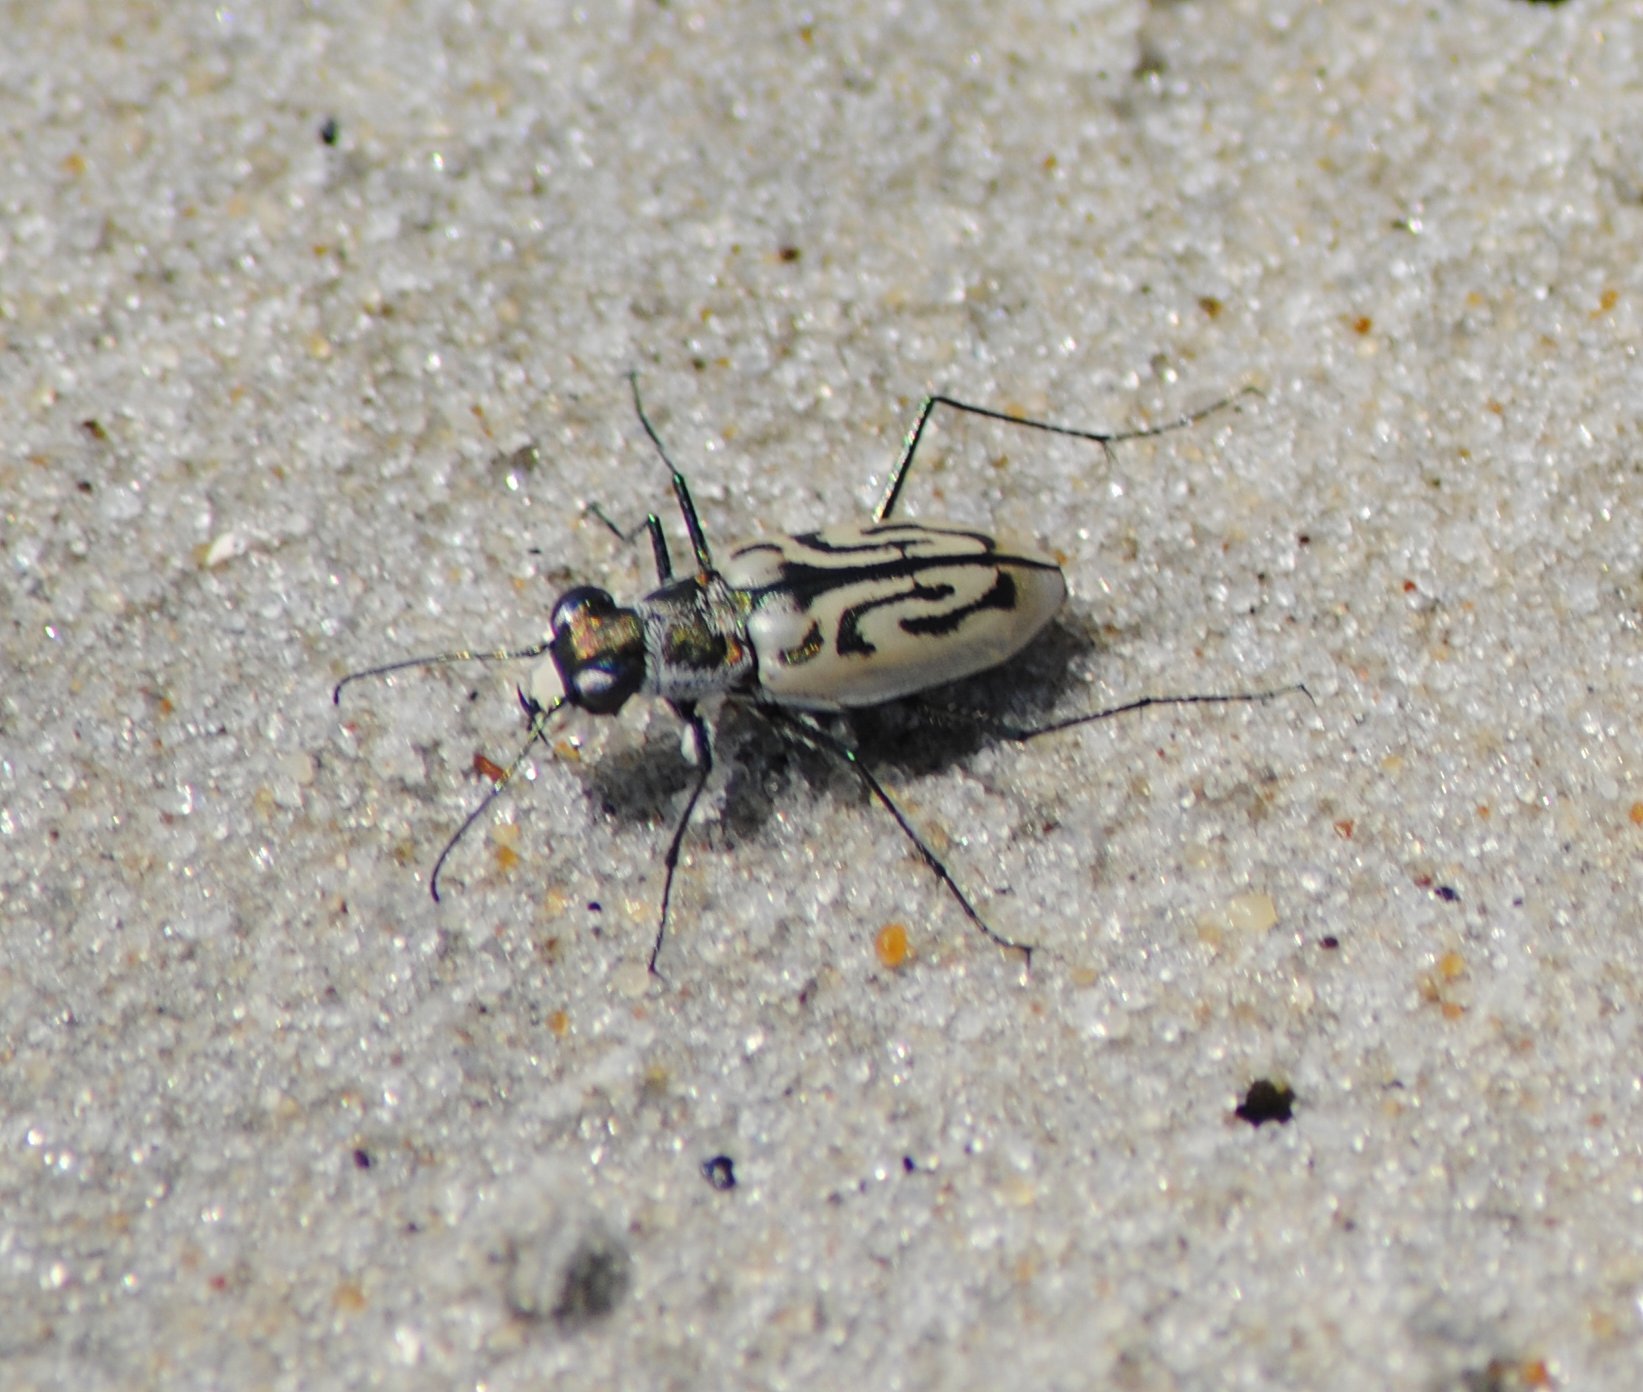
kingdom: Animalia
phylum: Arthropoda
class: Insecta
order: Coleoptera
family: Carabidae
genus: Habroscelimorpha
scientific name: Habroscelimorpha dorsalis
